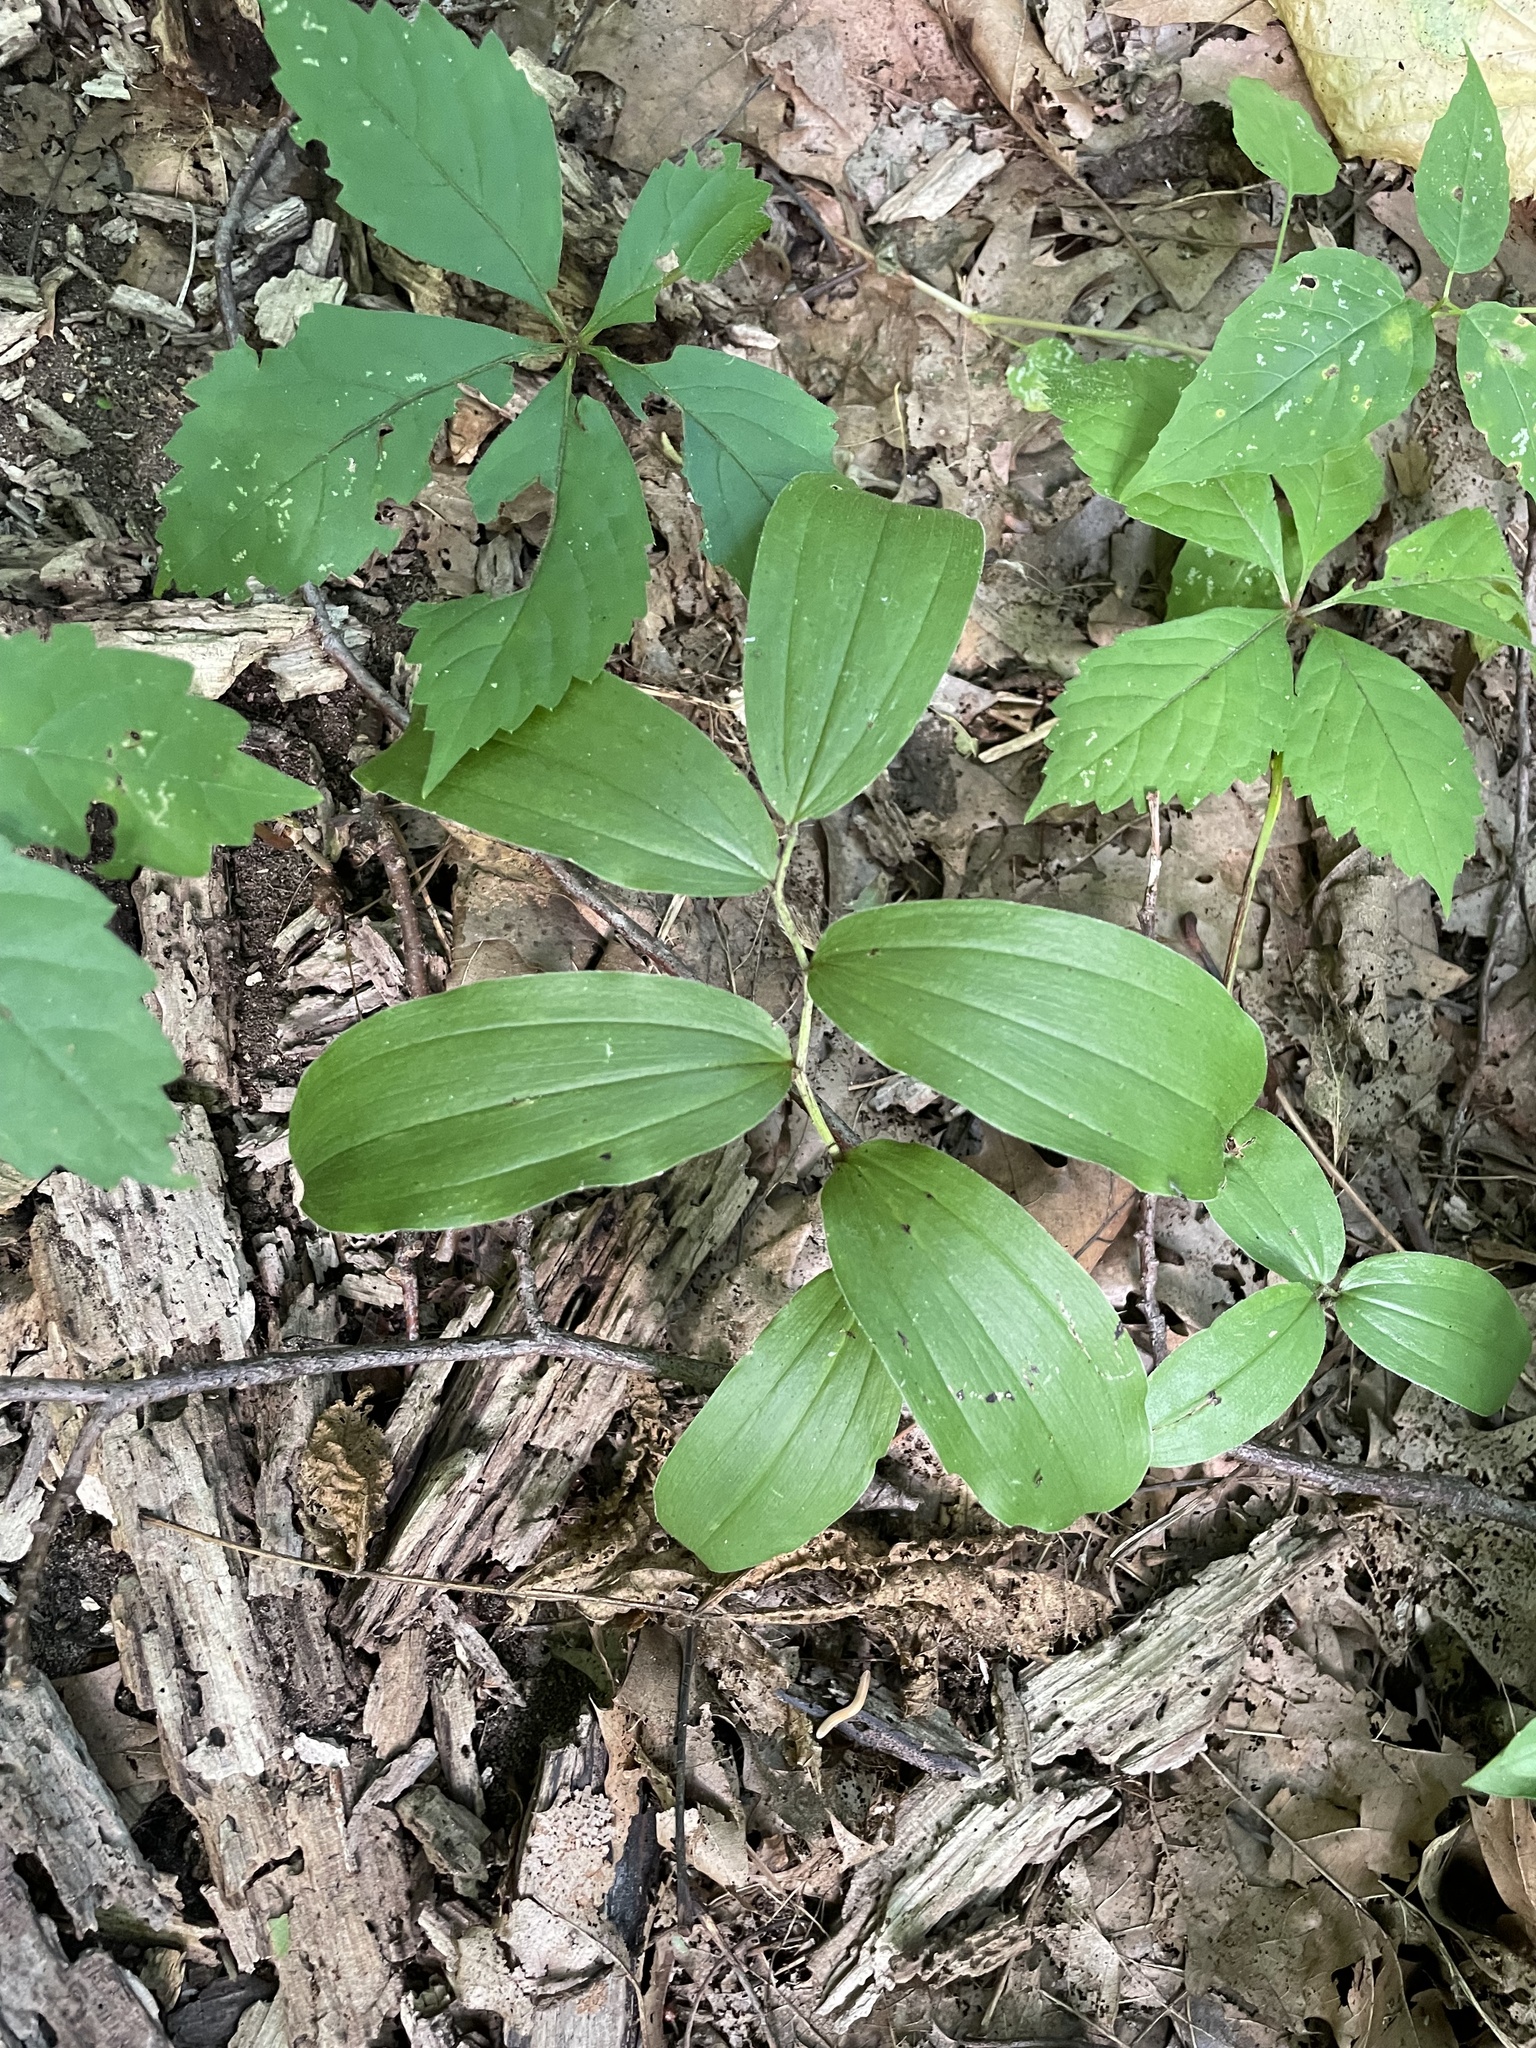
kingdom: Plantae
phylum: Tracheophyta
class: Liliopsida
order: Asparagales
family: Asparagaceae
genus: Maianthemum
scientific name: Maianthemum racemosum
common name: False spikenard
